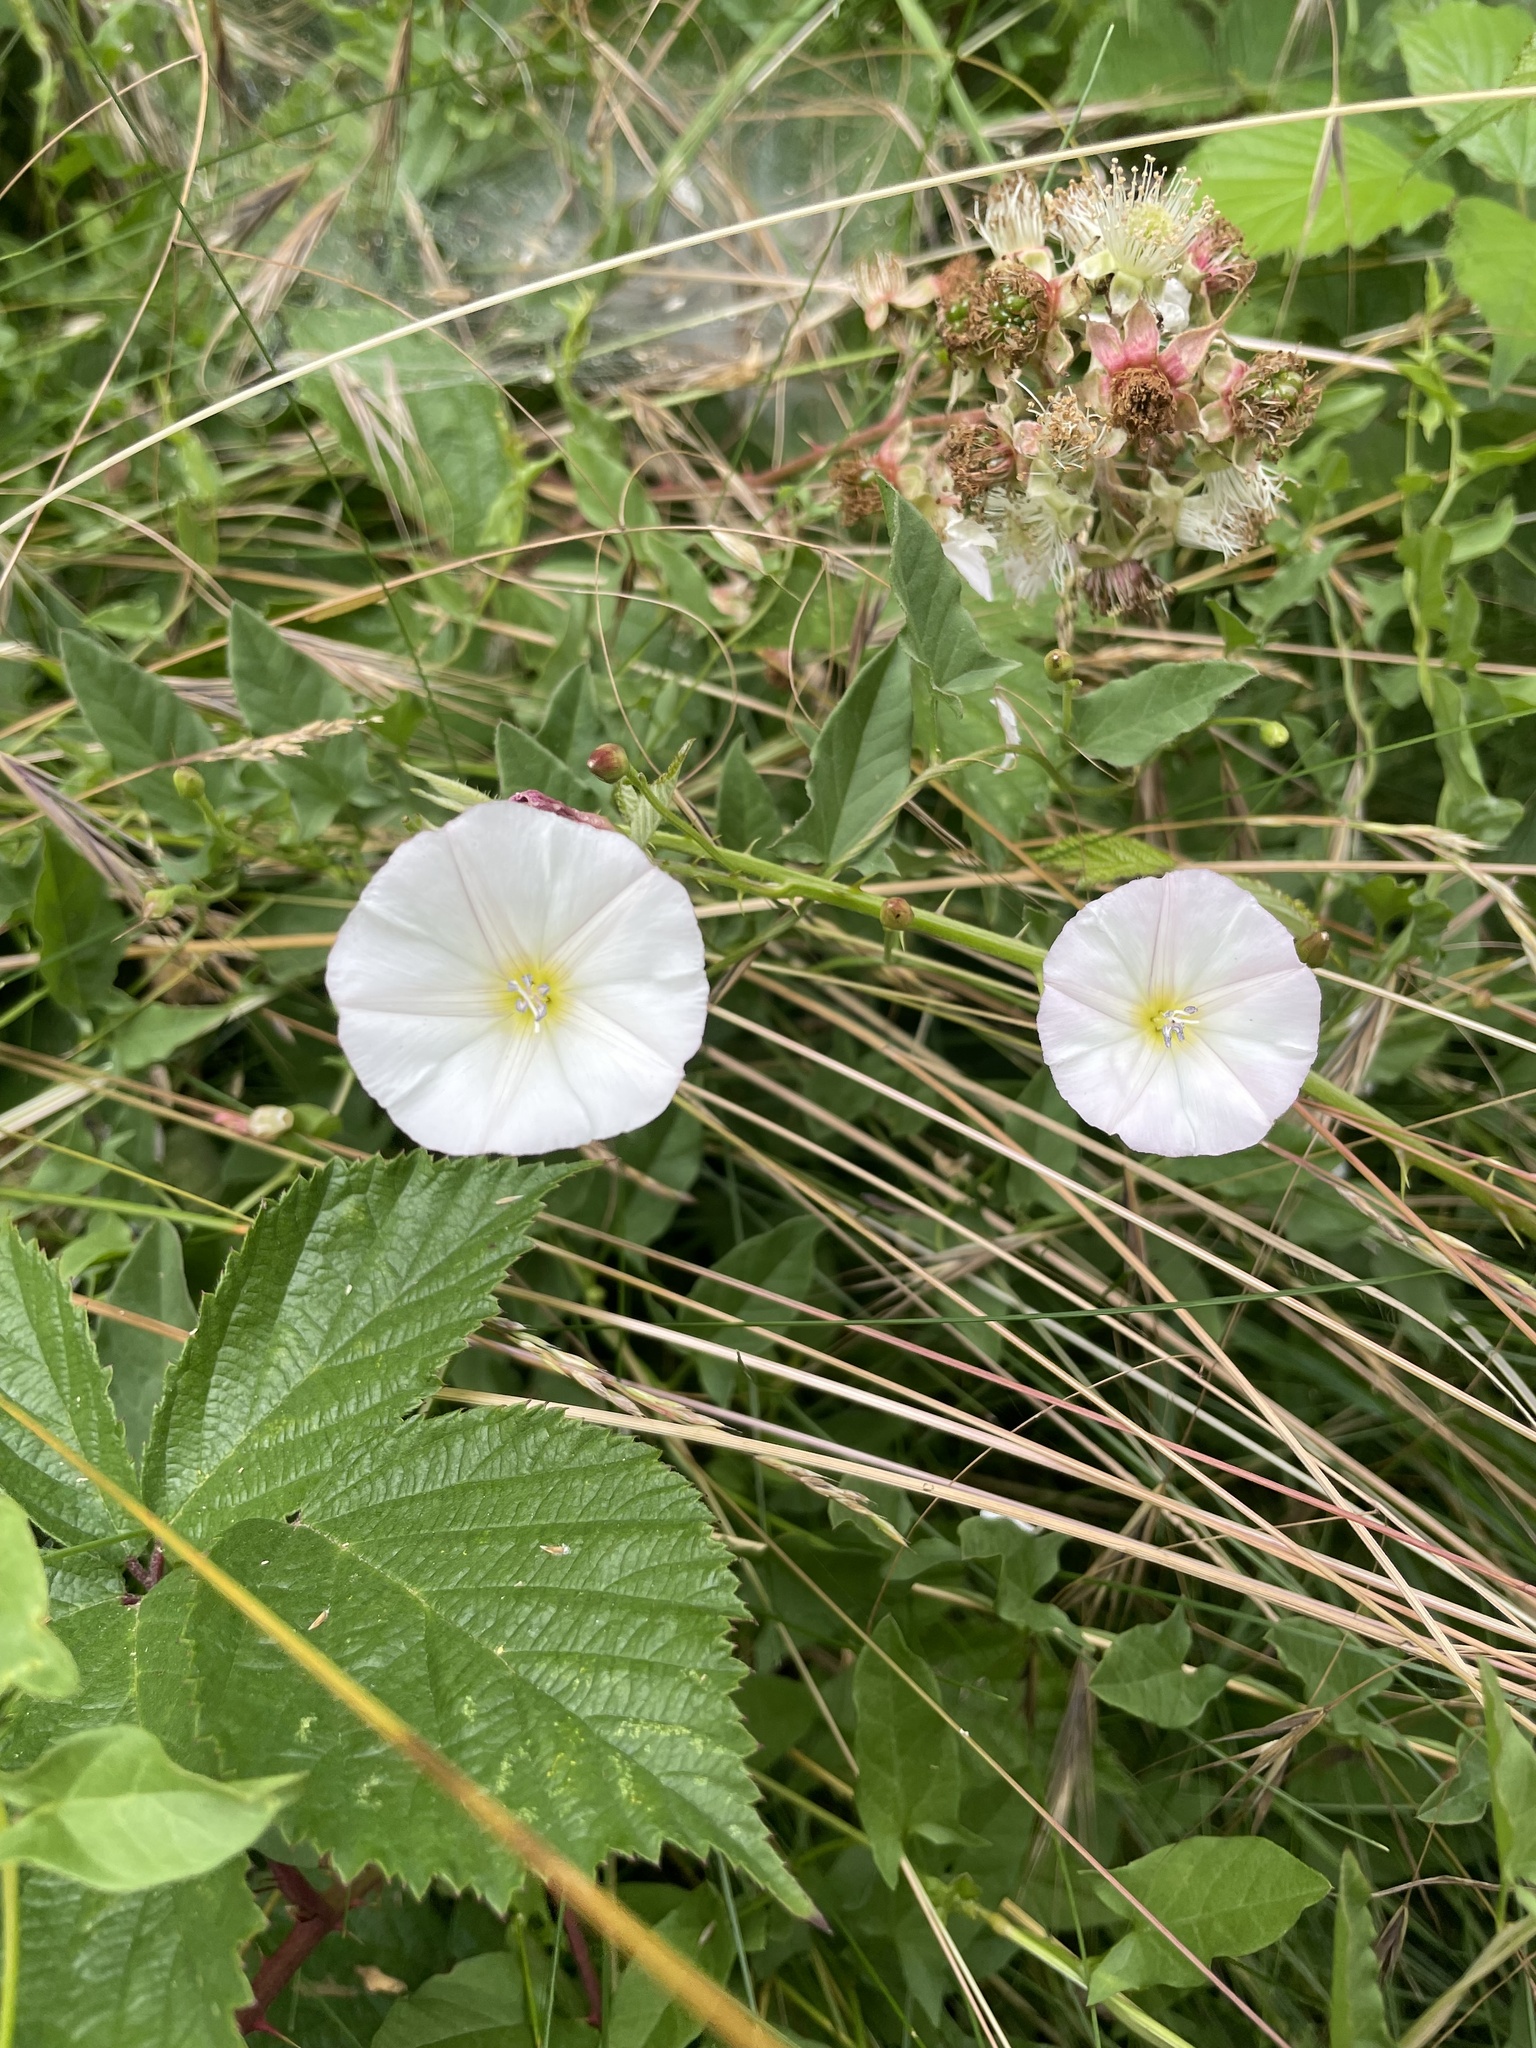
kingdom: Plantae
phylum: Tracheophyta
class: Magnoliopsida
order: Solanales
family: Convolvulaceae
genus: Convolvulus
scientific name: Convolvulus arvensis
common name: Field bindweed
